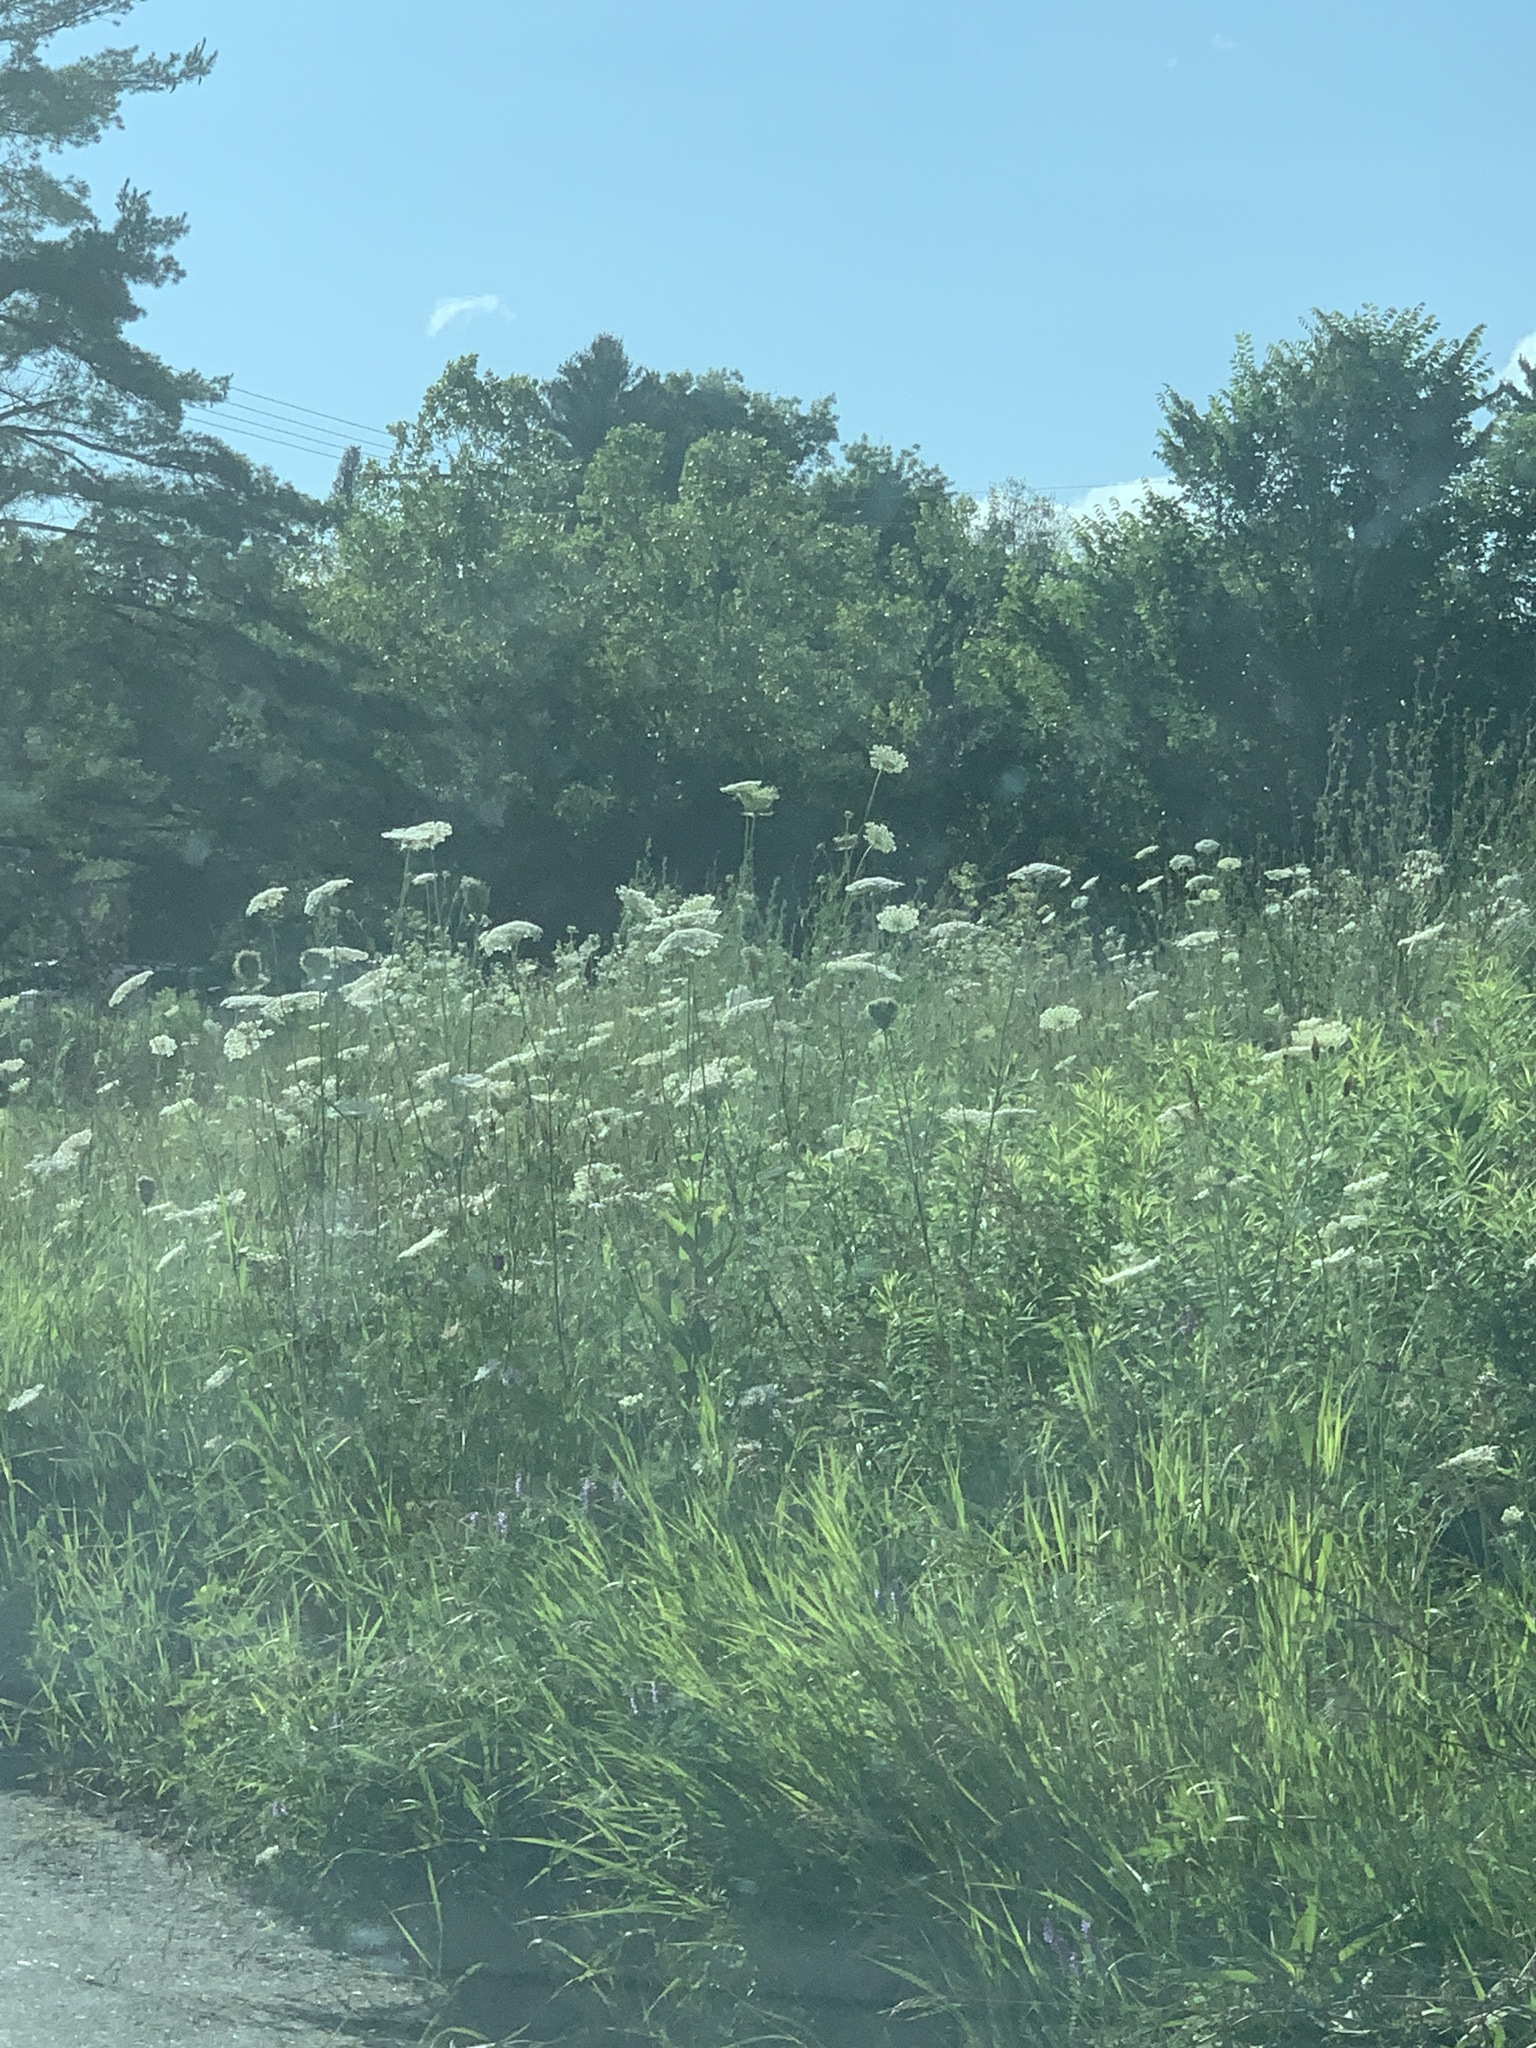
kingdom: Plantae
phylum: Tracheophyta
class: Magnoliopsida
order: Apiales
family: Apiaceae
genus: Daucus
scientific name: Daucus carota
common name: Wild carrot
